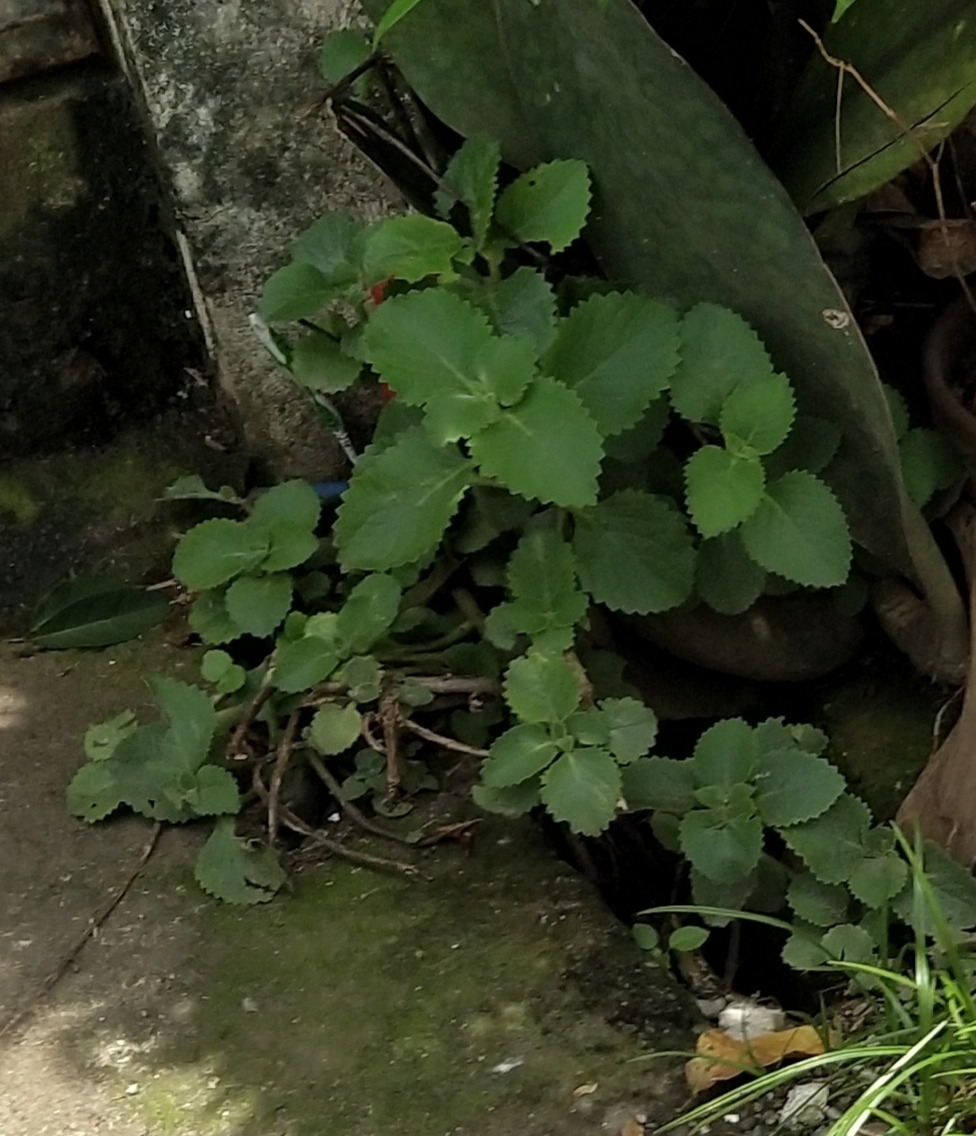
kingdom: Plantae
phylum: Tracheophyta
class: Magnoliopsida
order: Lamiales
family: Lamiaceae
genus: Coleus
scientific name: Coleus amboinicus
